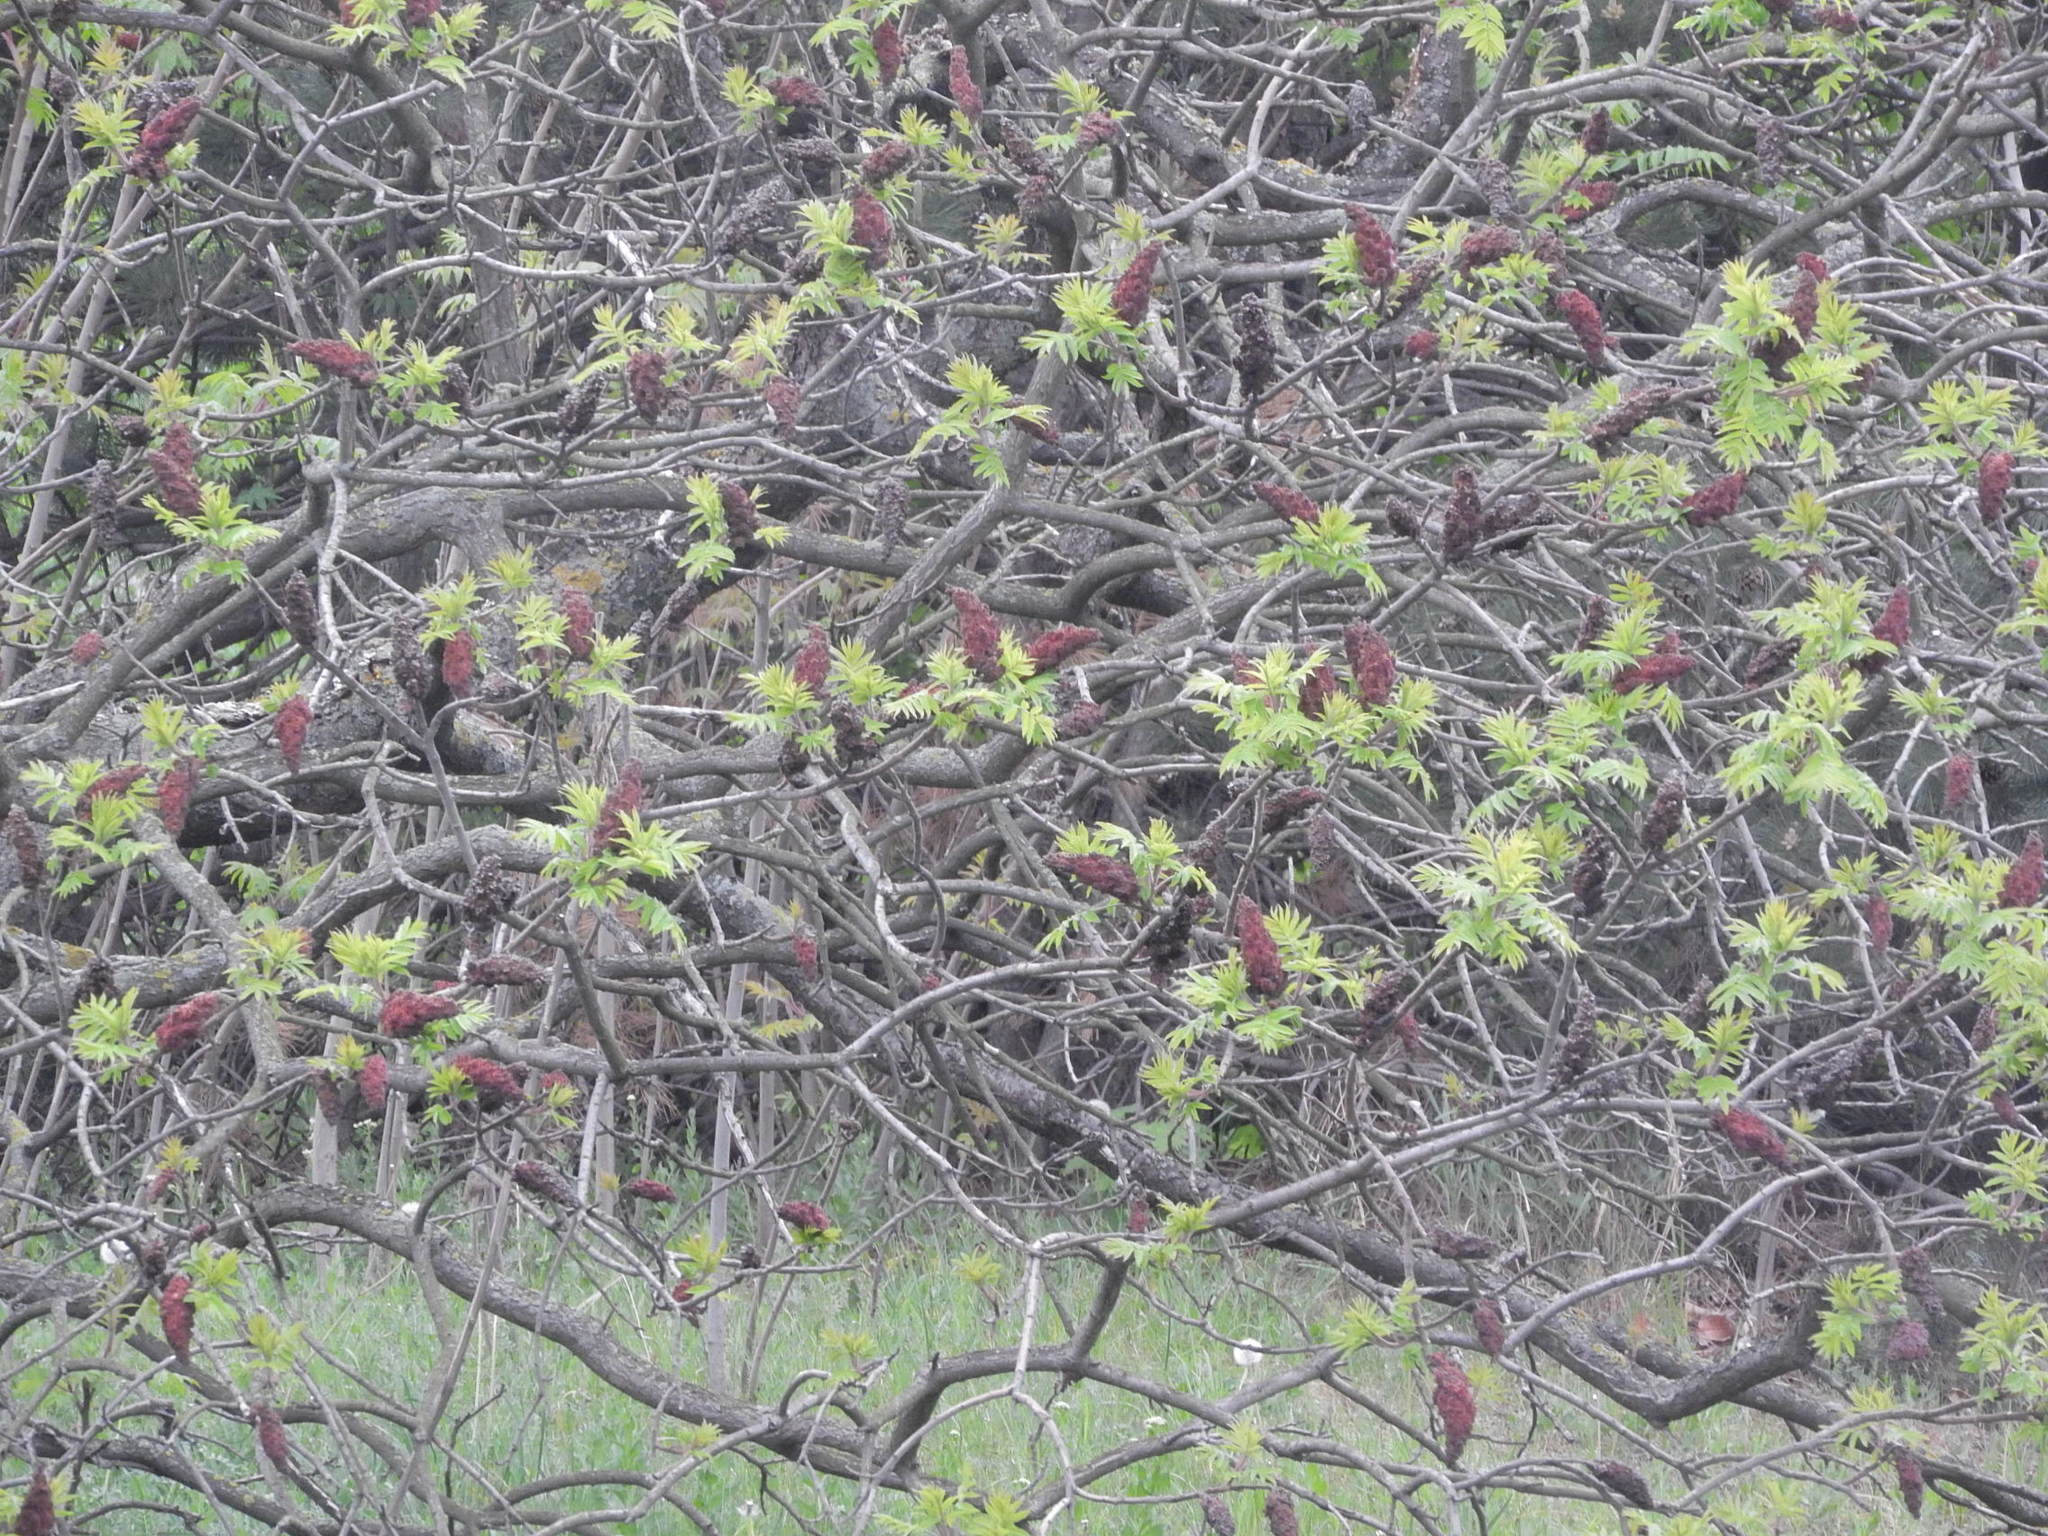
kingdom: Plantae
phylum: Tracheophyta
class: Magnoliopsida
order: Sapindales
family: Anacardiaceae
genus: Rhus
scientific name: Rhus typhina
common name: Staghorn sumac
